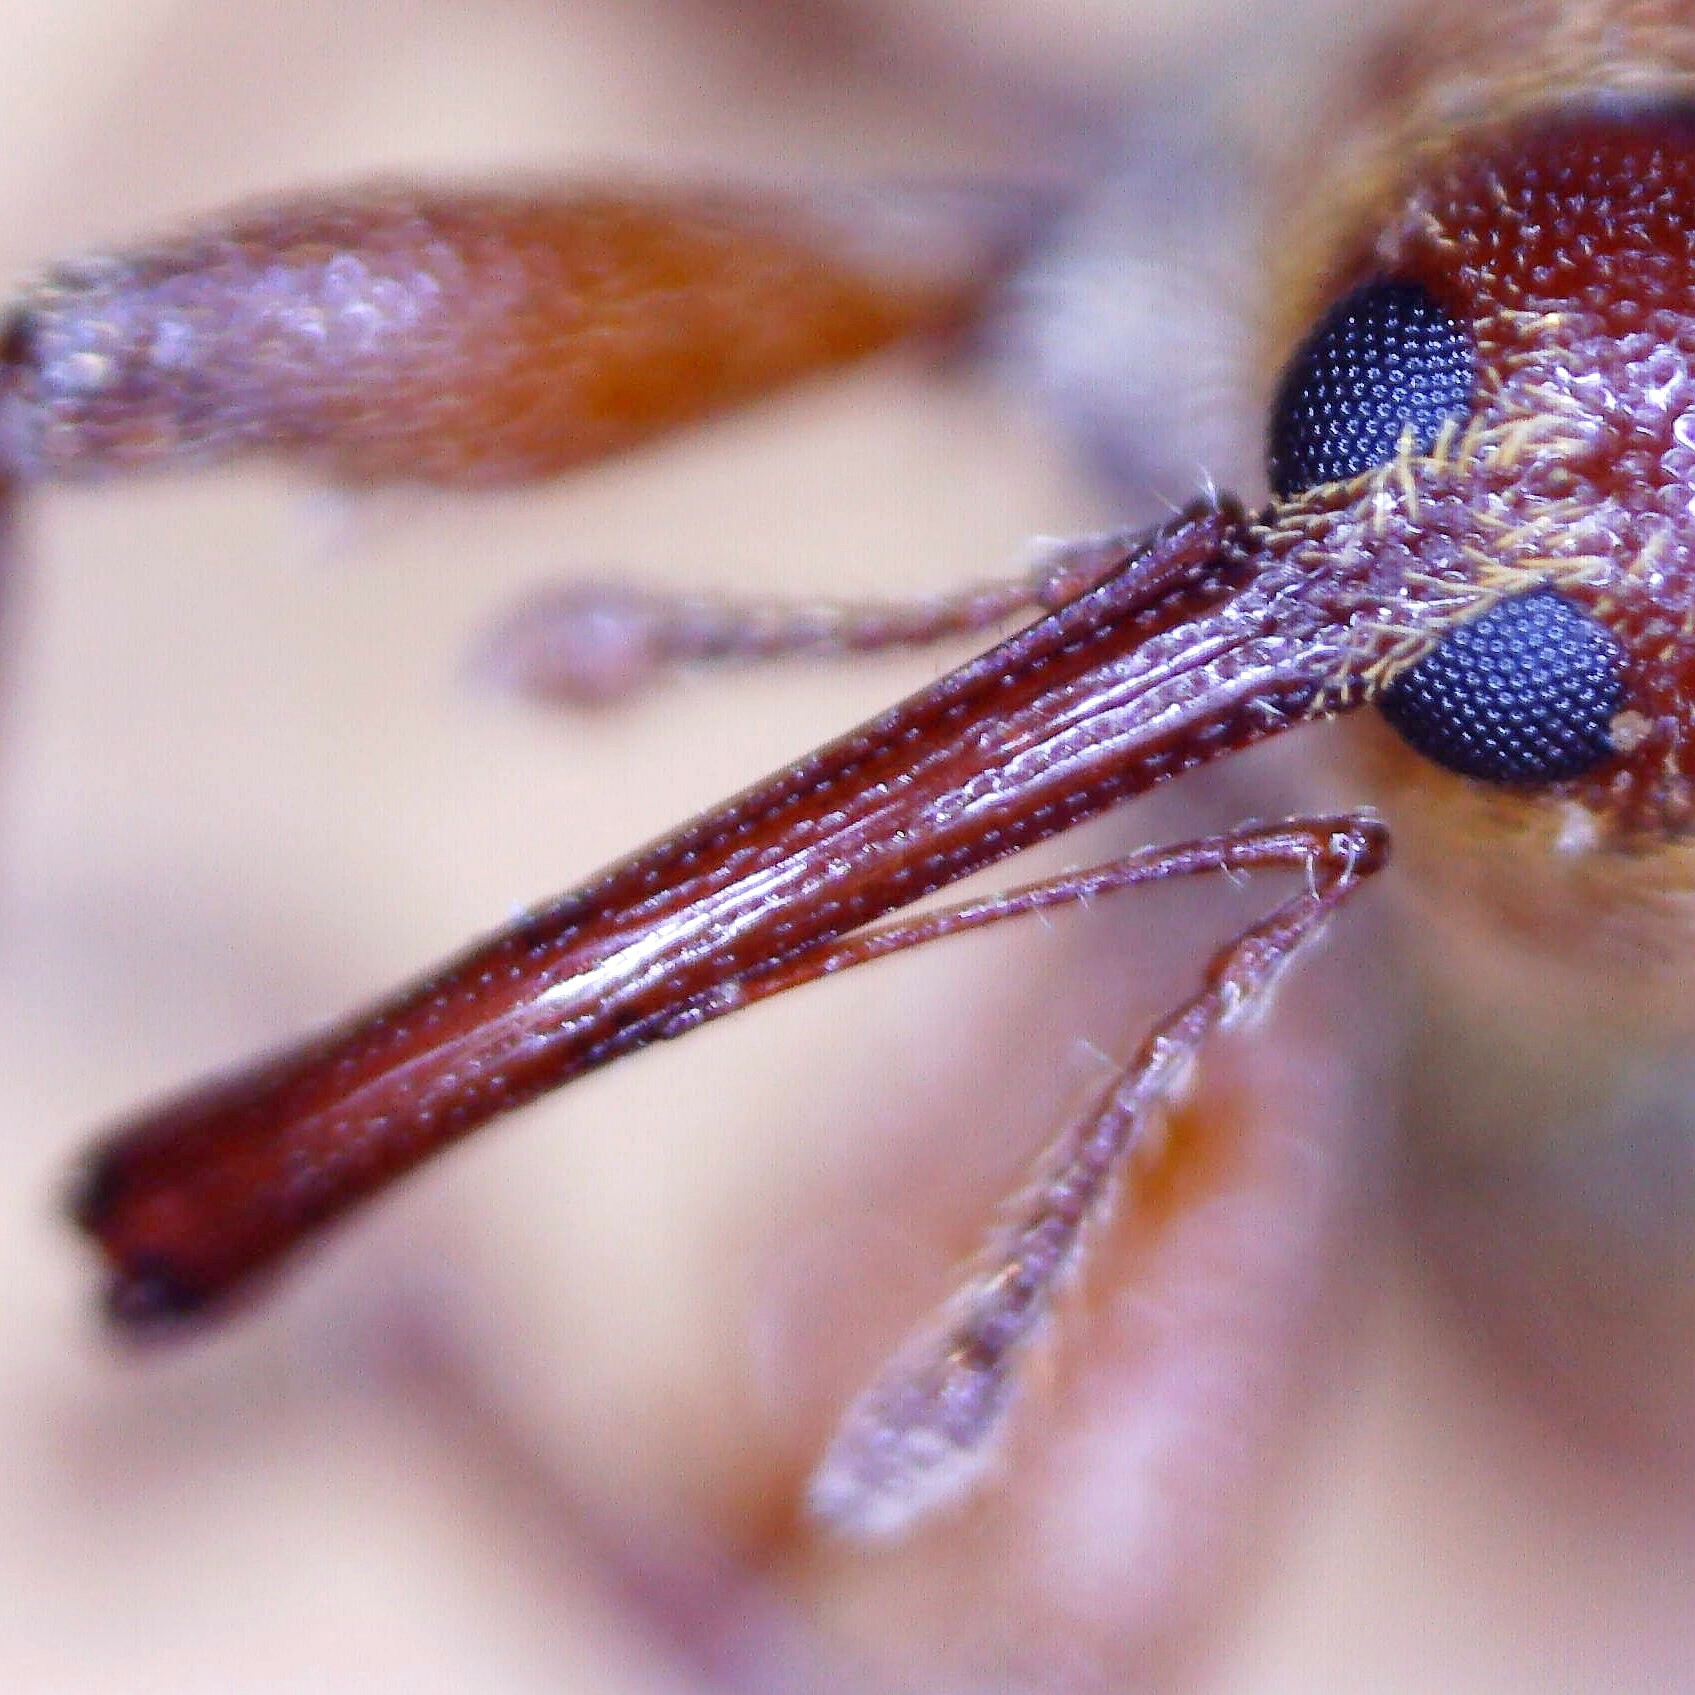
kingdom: Animalia
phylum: Arthropoda
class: Insecta
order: Coleoptera
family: Curculionidae
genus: Dorytomus
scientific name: Dorytomus tortrix
